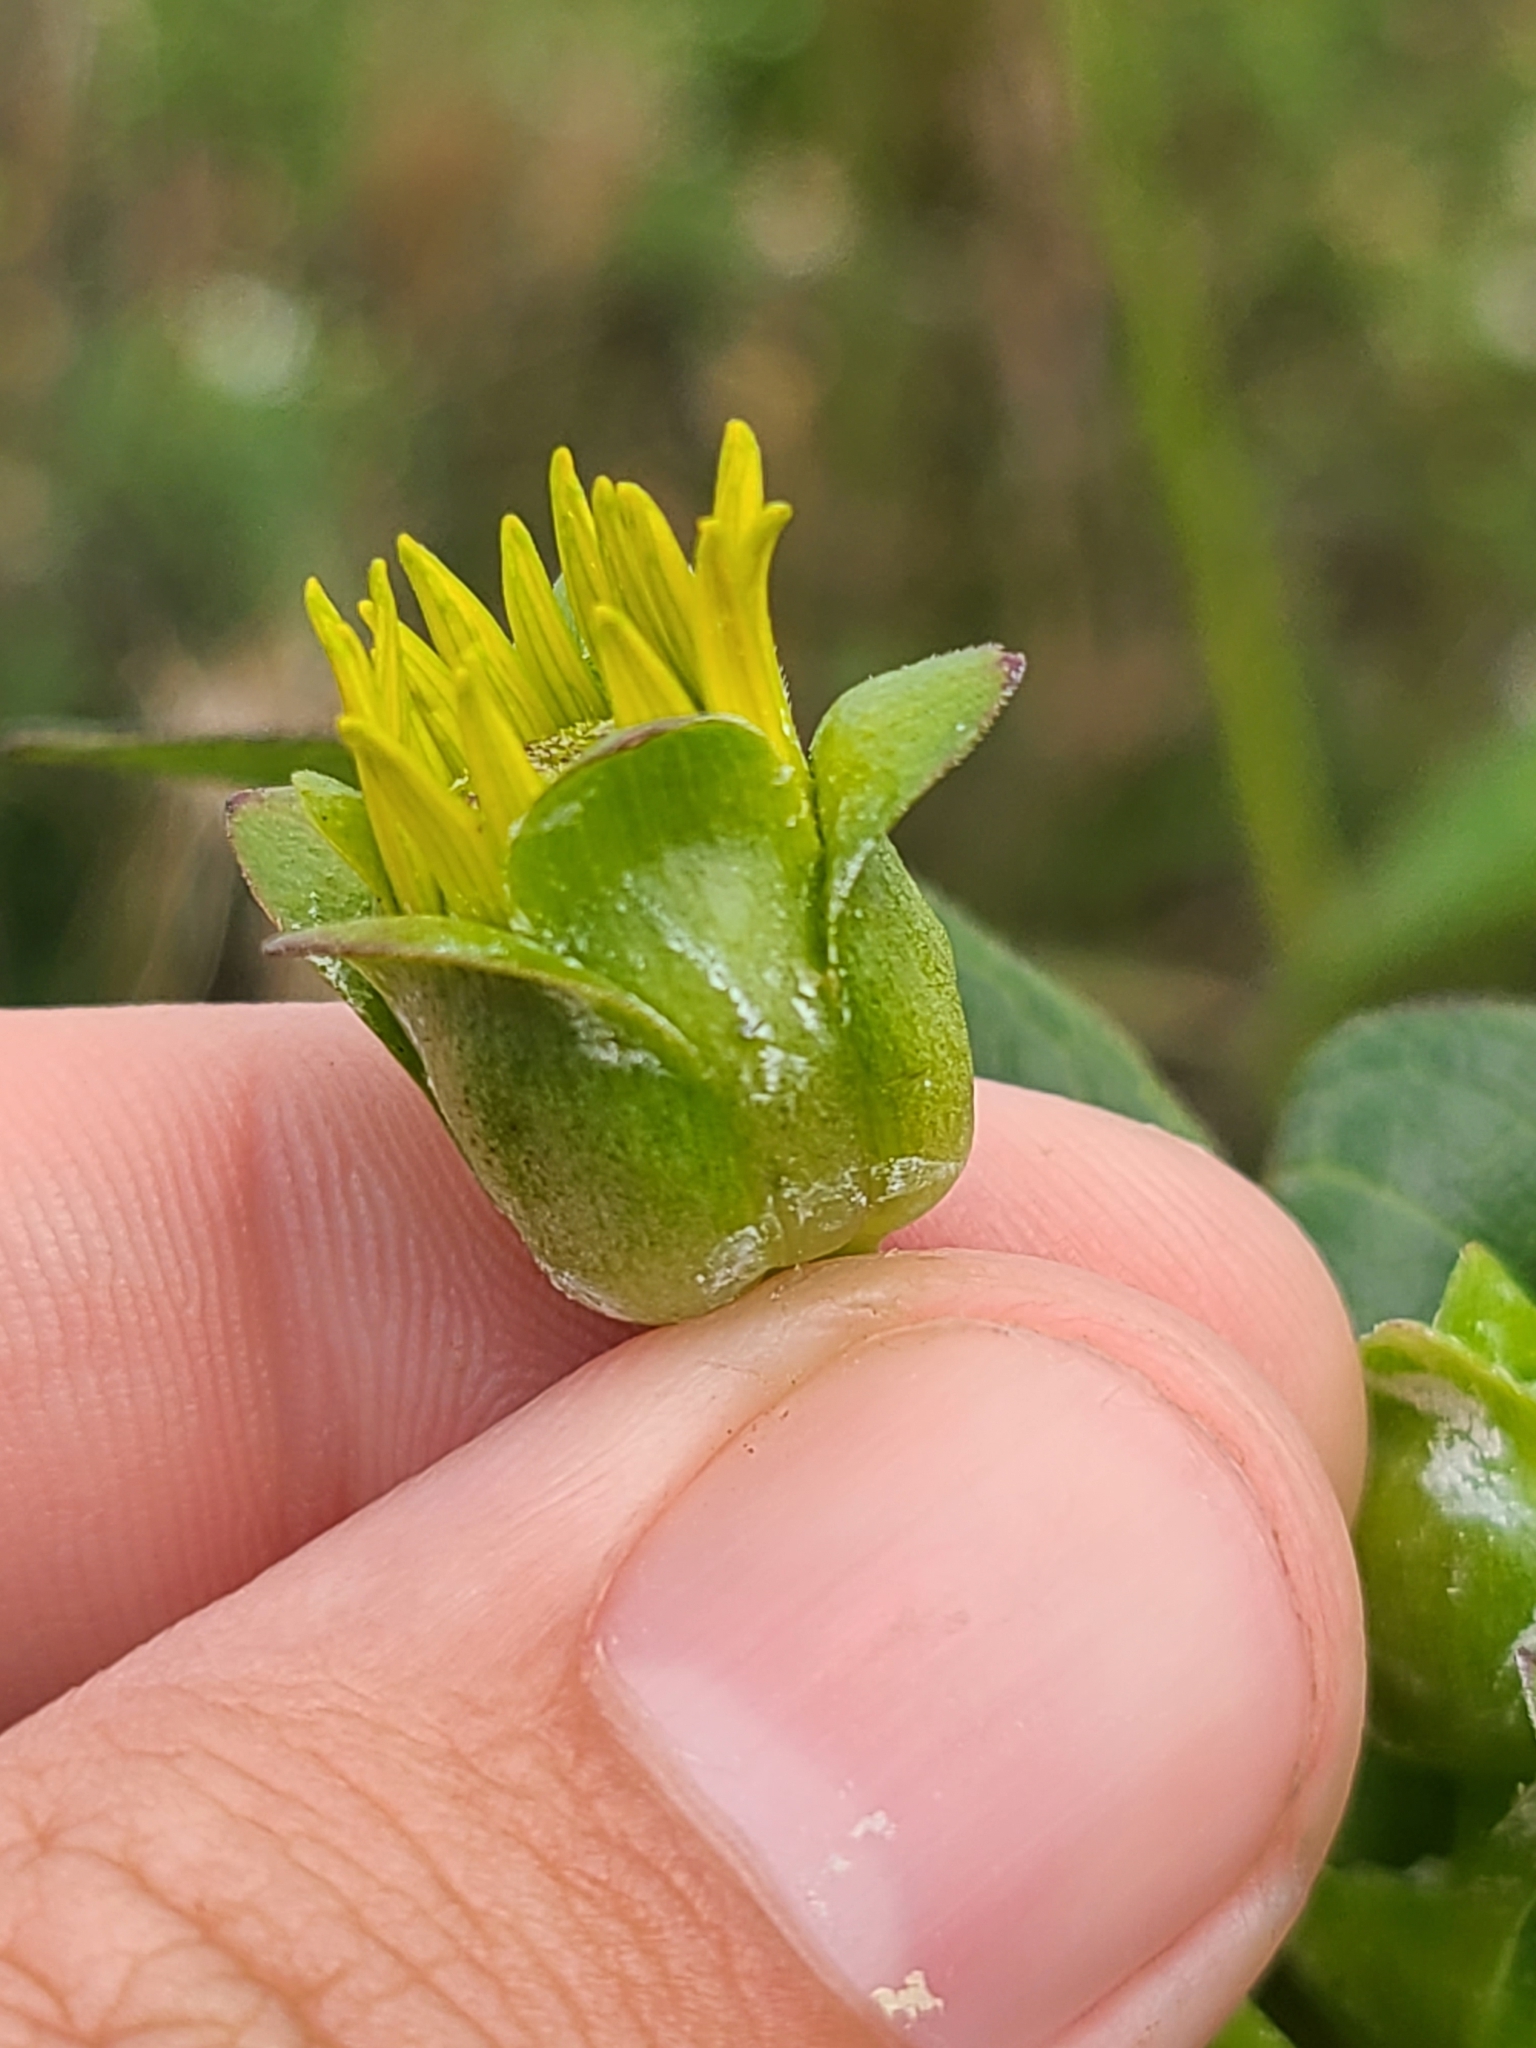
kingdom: Plantae
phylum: Tracheophyta
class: Magnoliopsida
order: Asterales
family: Asteraceae
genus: Silphium
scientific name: Silphium perfoliatum
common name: Cup-plant
